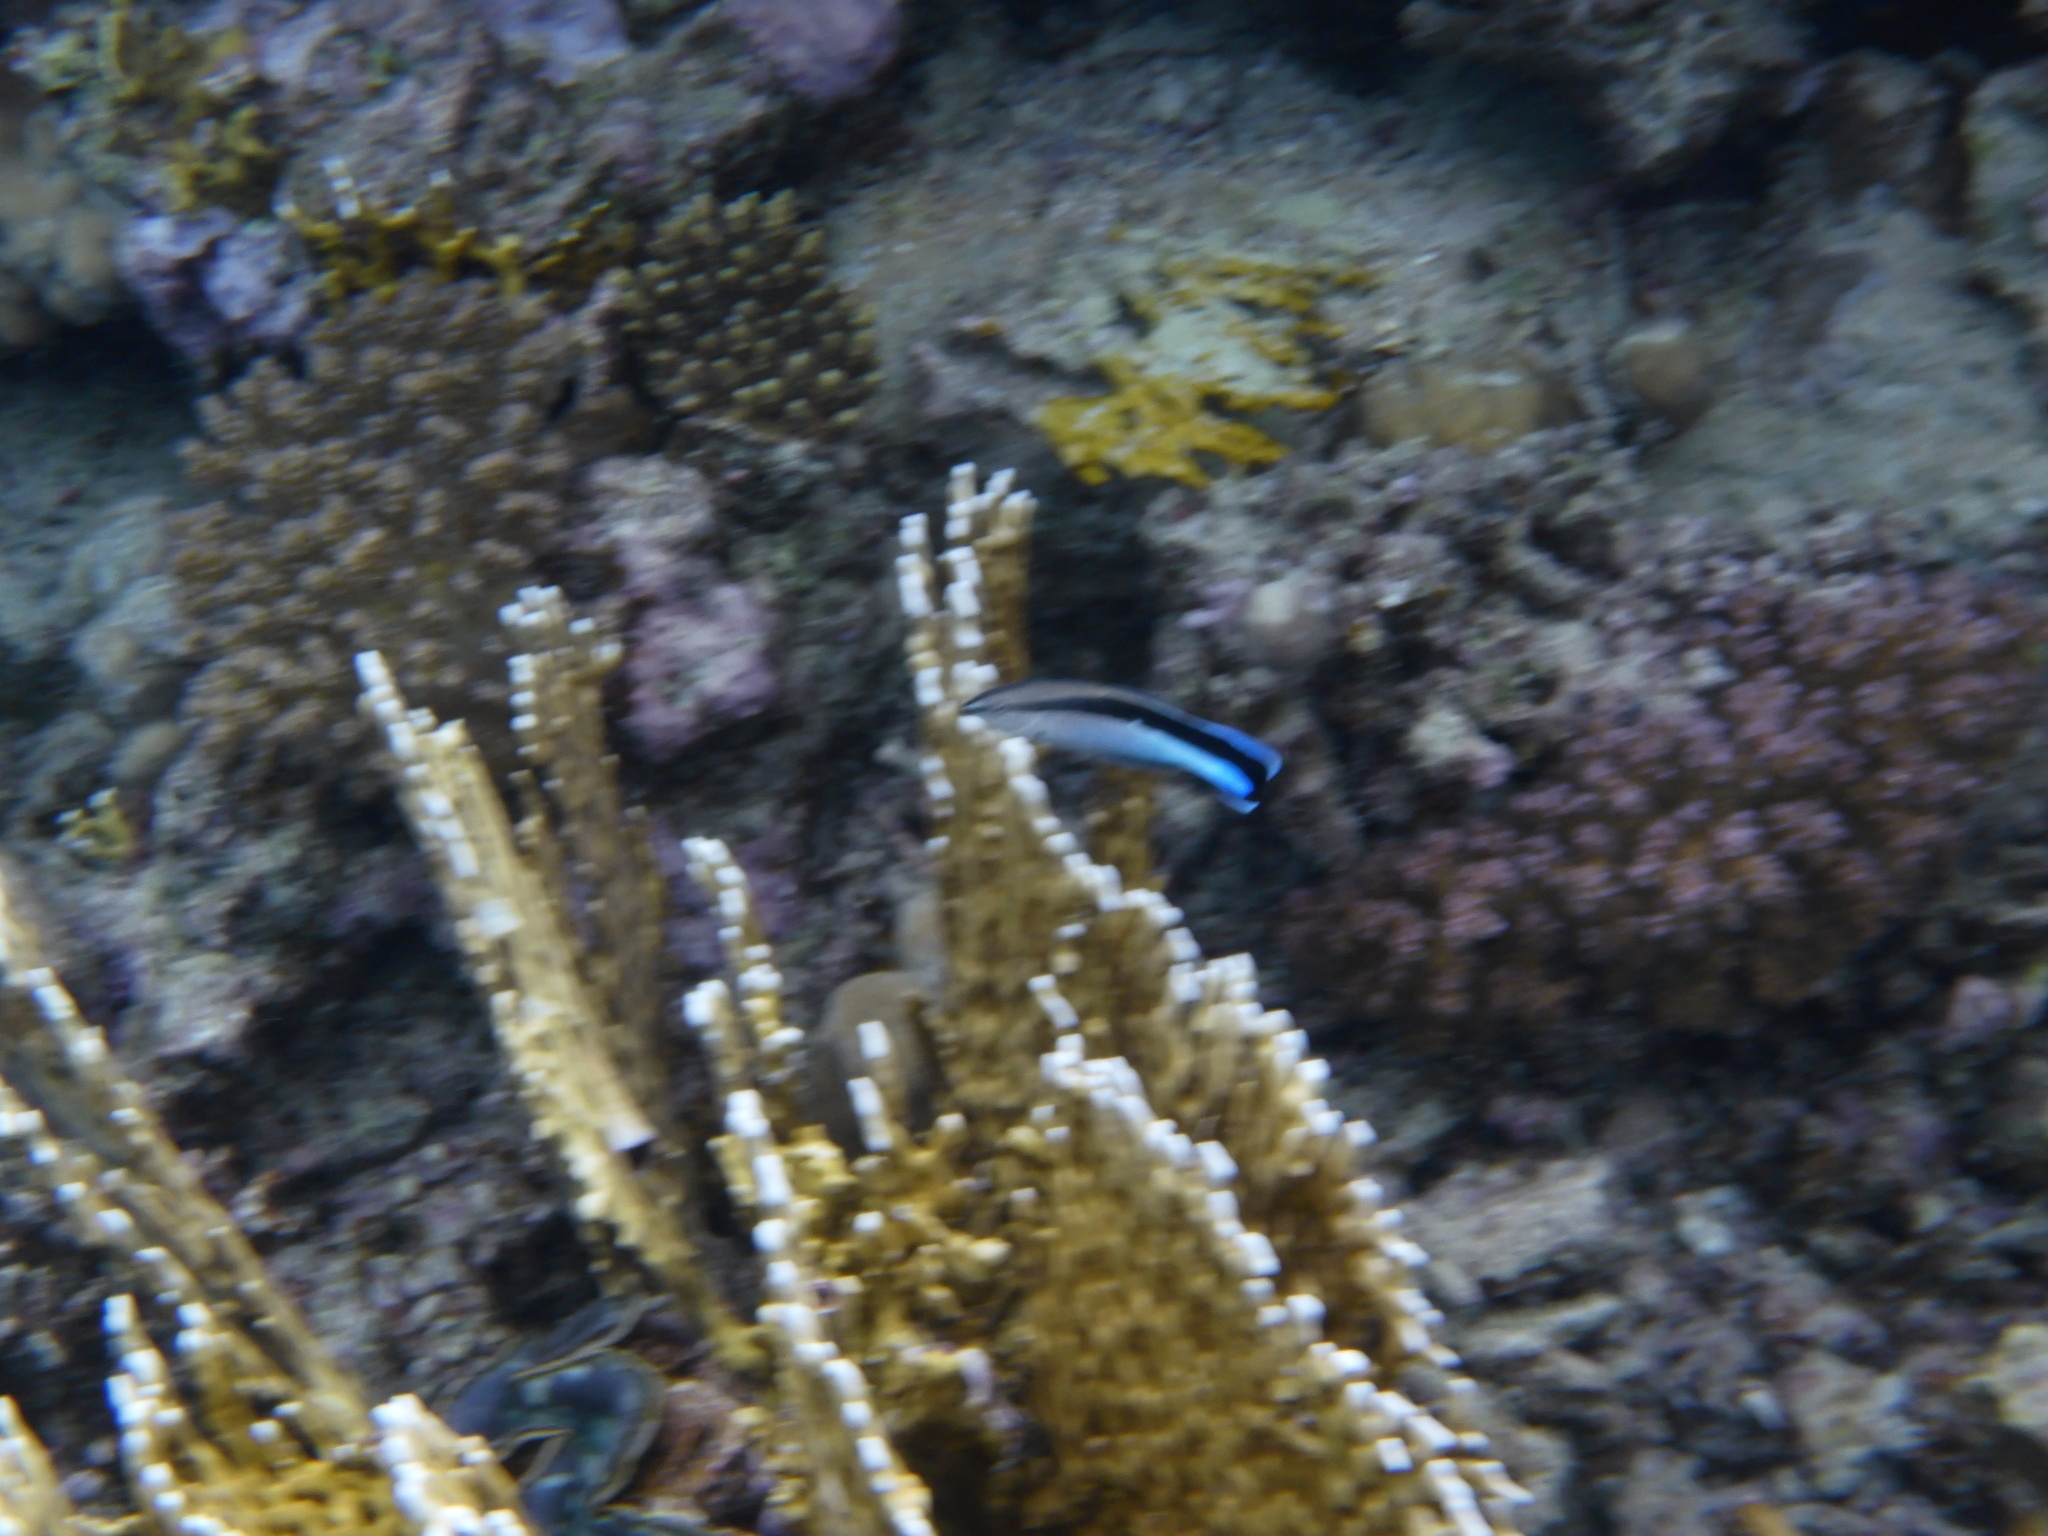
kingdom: Animalia
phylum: Chordata
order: Perciformes
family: Labridae
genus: Labroides
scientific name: Labroides dimidiatus
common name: Blue diesel wrasse
